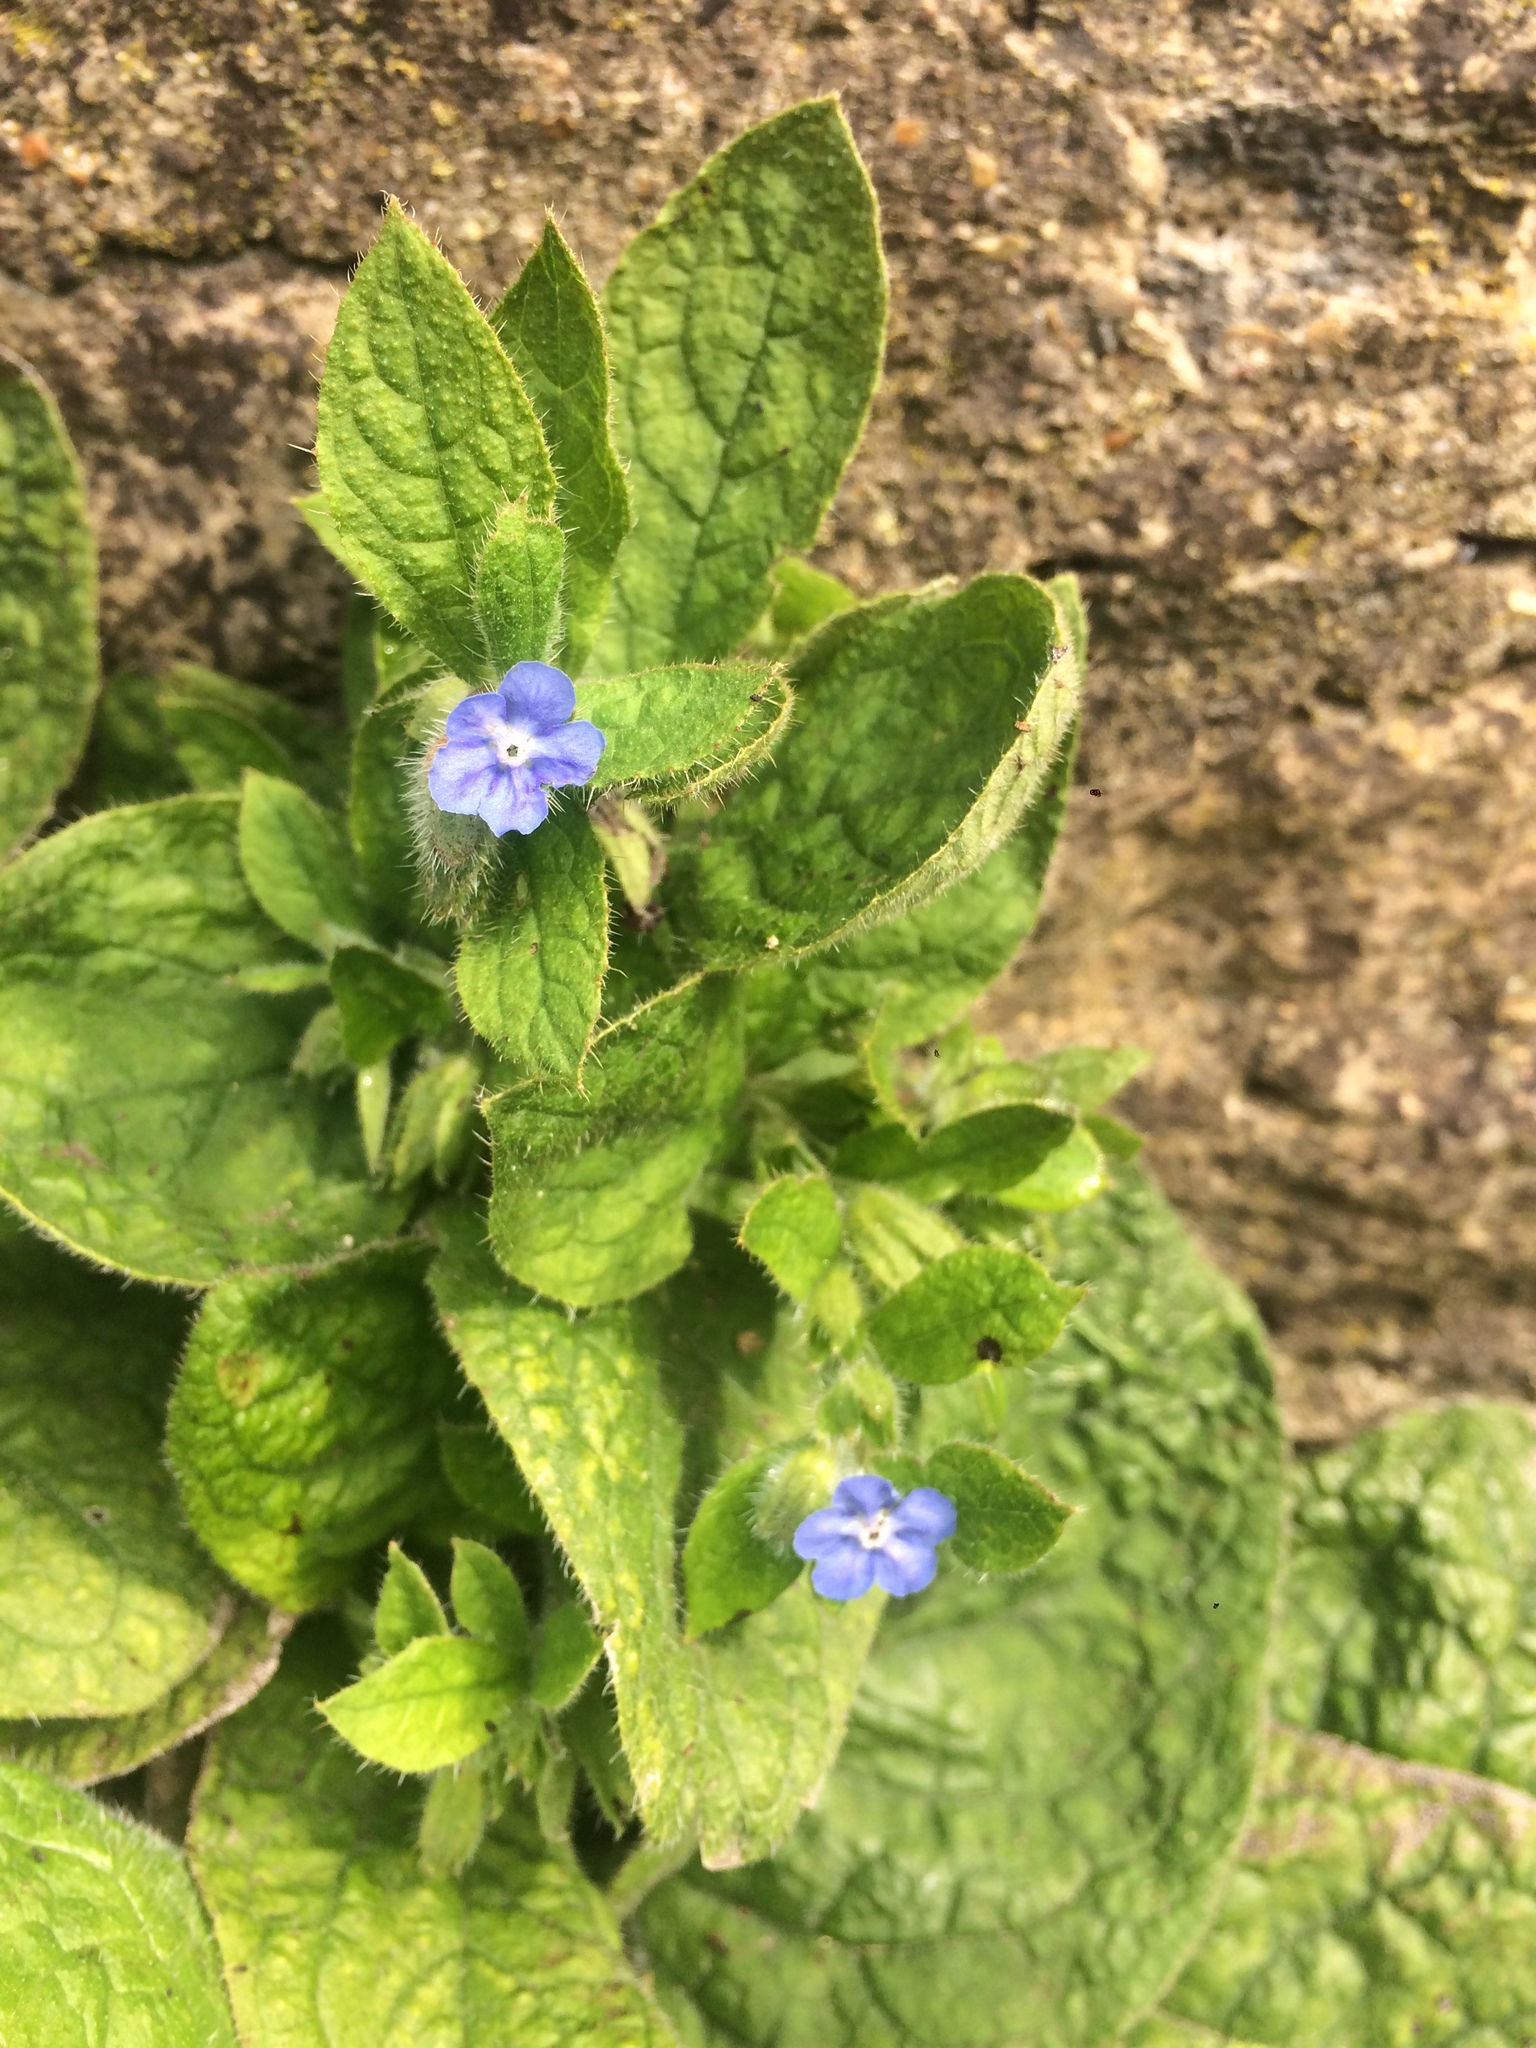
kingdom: Plantae
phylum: Tracheophyta
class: Magnoliopsida
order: Boraginales
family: Boraginaceae
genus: Pentaglottis
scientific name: Pentaglottis sempervirens
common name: Green alkanet
